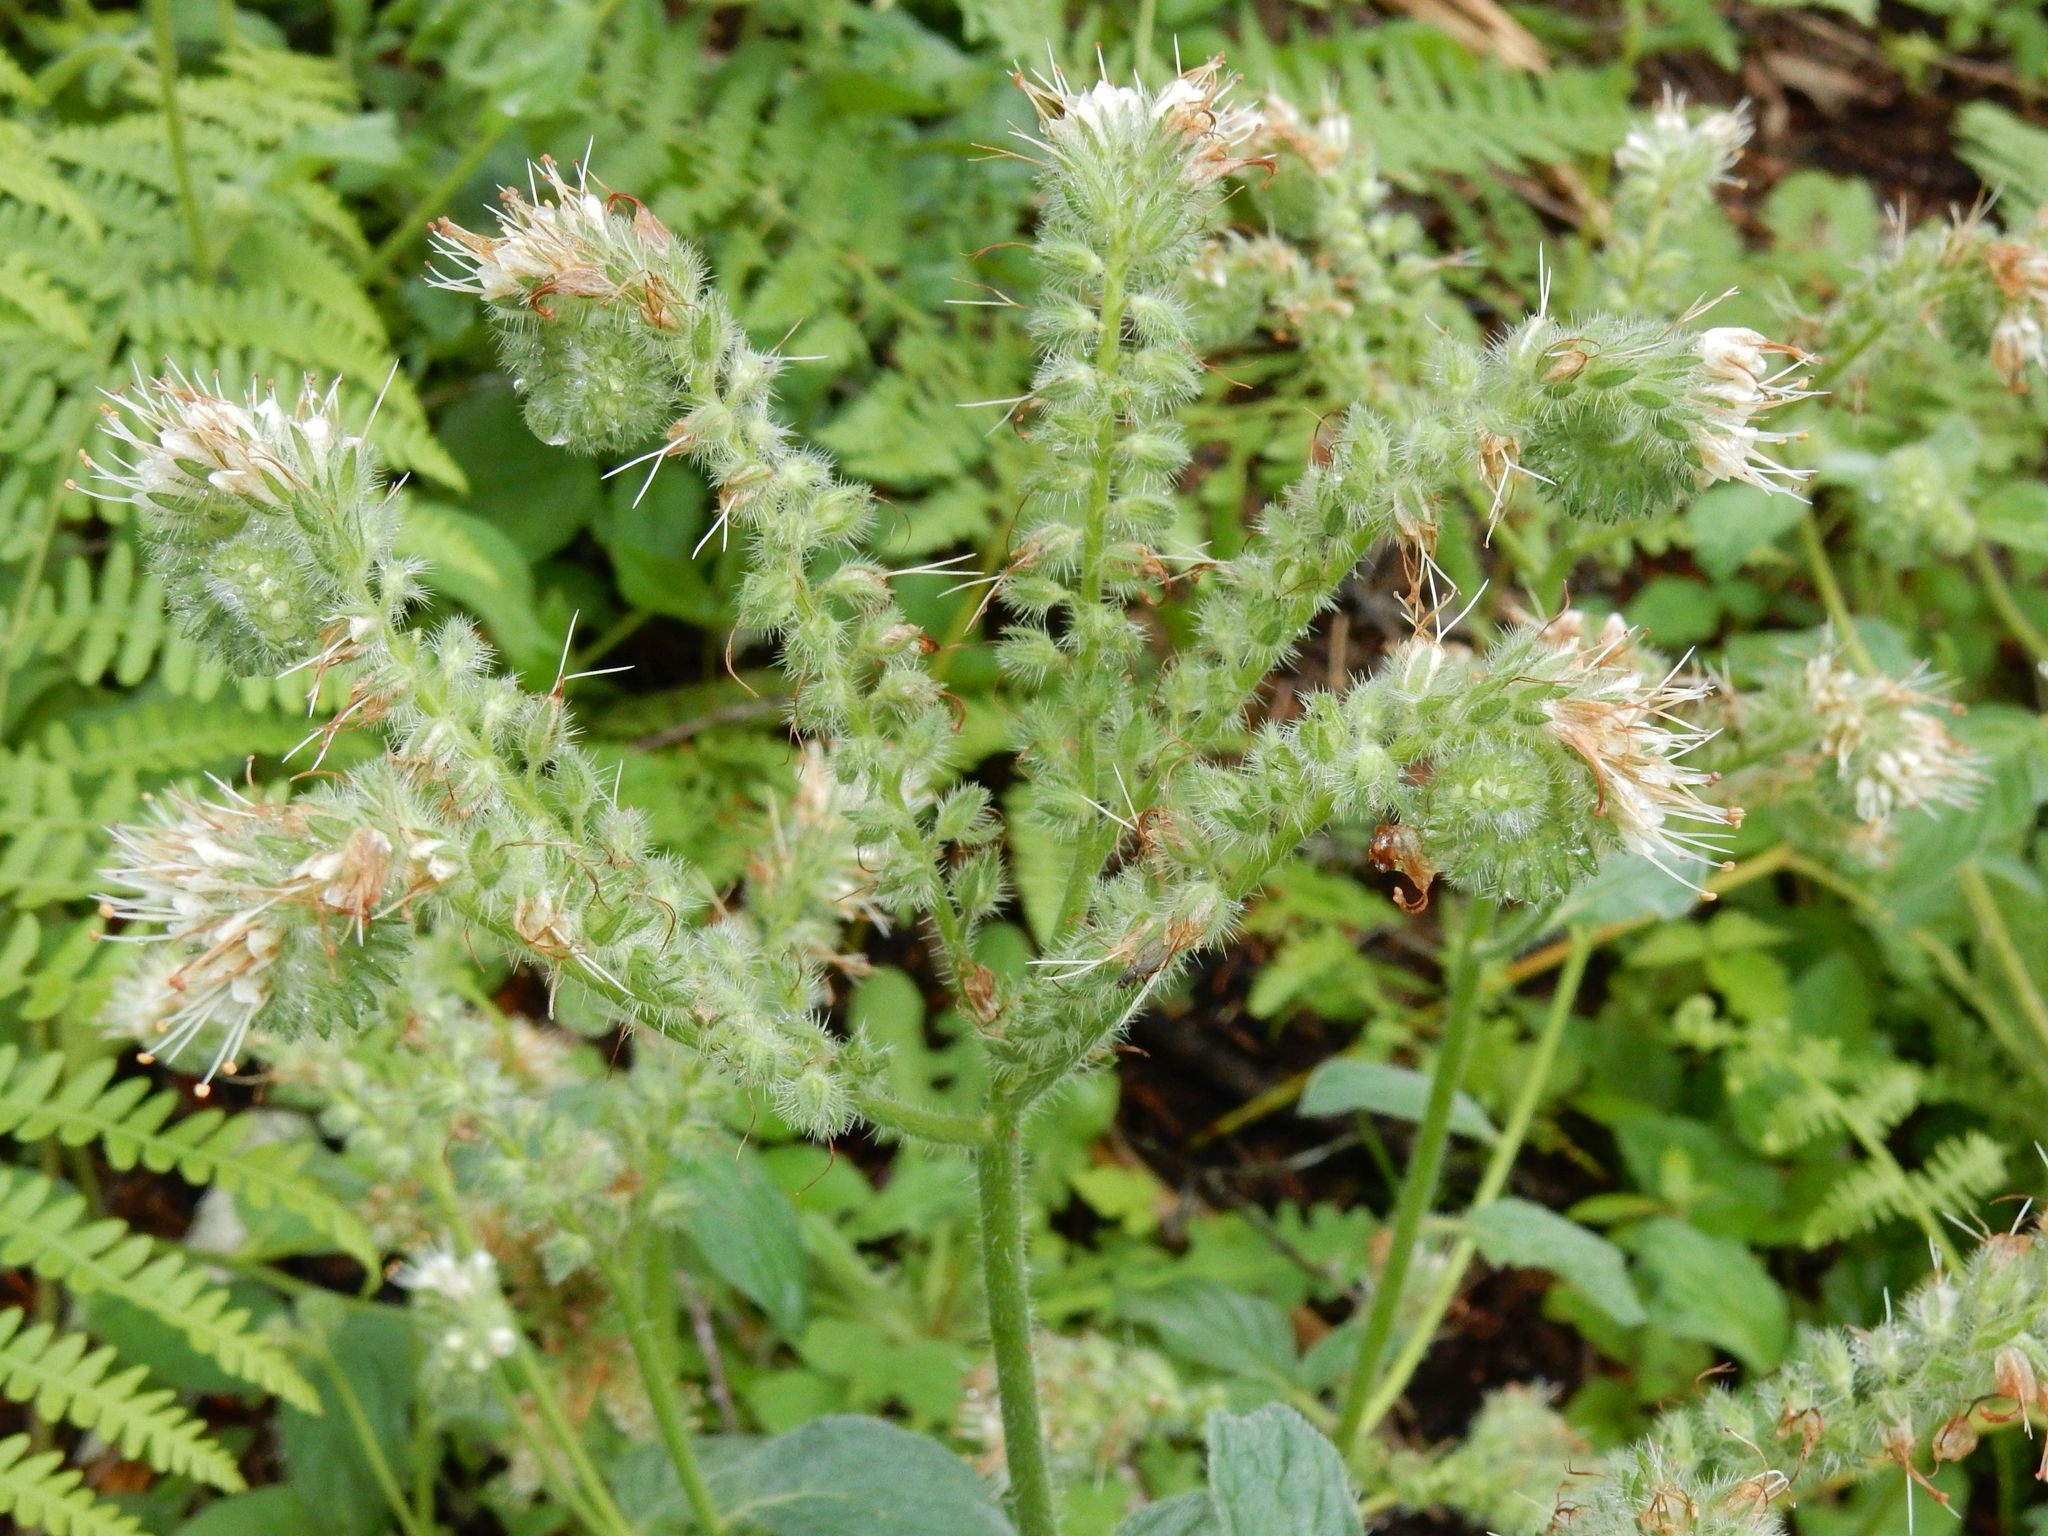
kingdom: Plantae
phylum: Tracheophyta
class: Magnoliopsida
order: Boraginales
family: Hydrophyllaceae
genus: Phacelia
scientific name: Phacelia nemoralis
